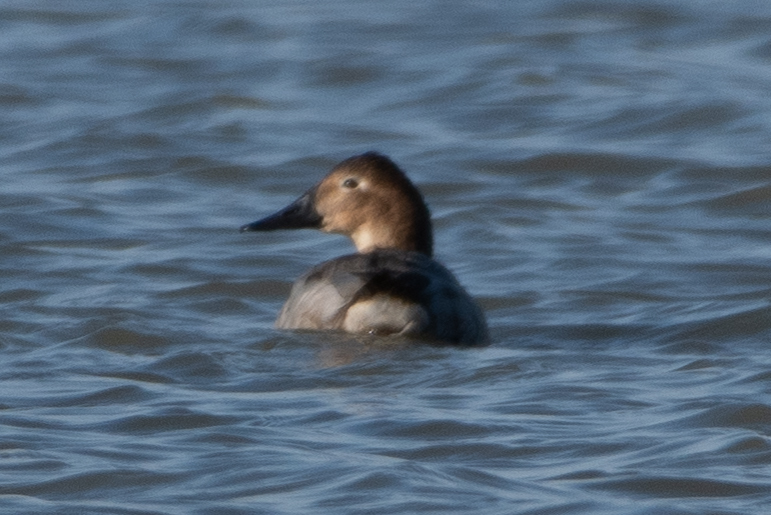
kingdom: Animalia
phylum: Chordata
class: Aves
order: Anseriformes
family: Anatidae
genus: Aythya
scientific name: Aythya valisineria
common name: Canvasback
